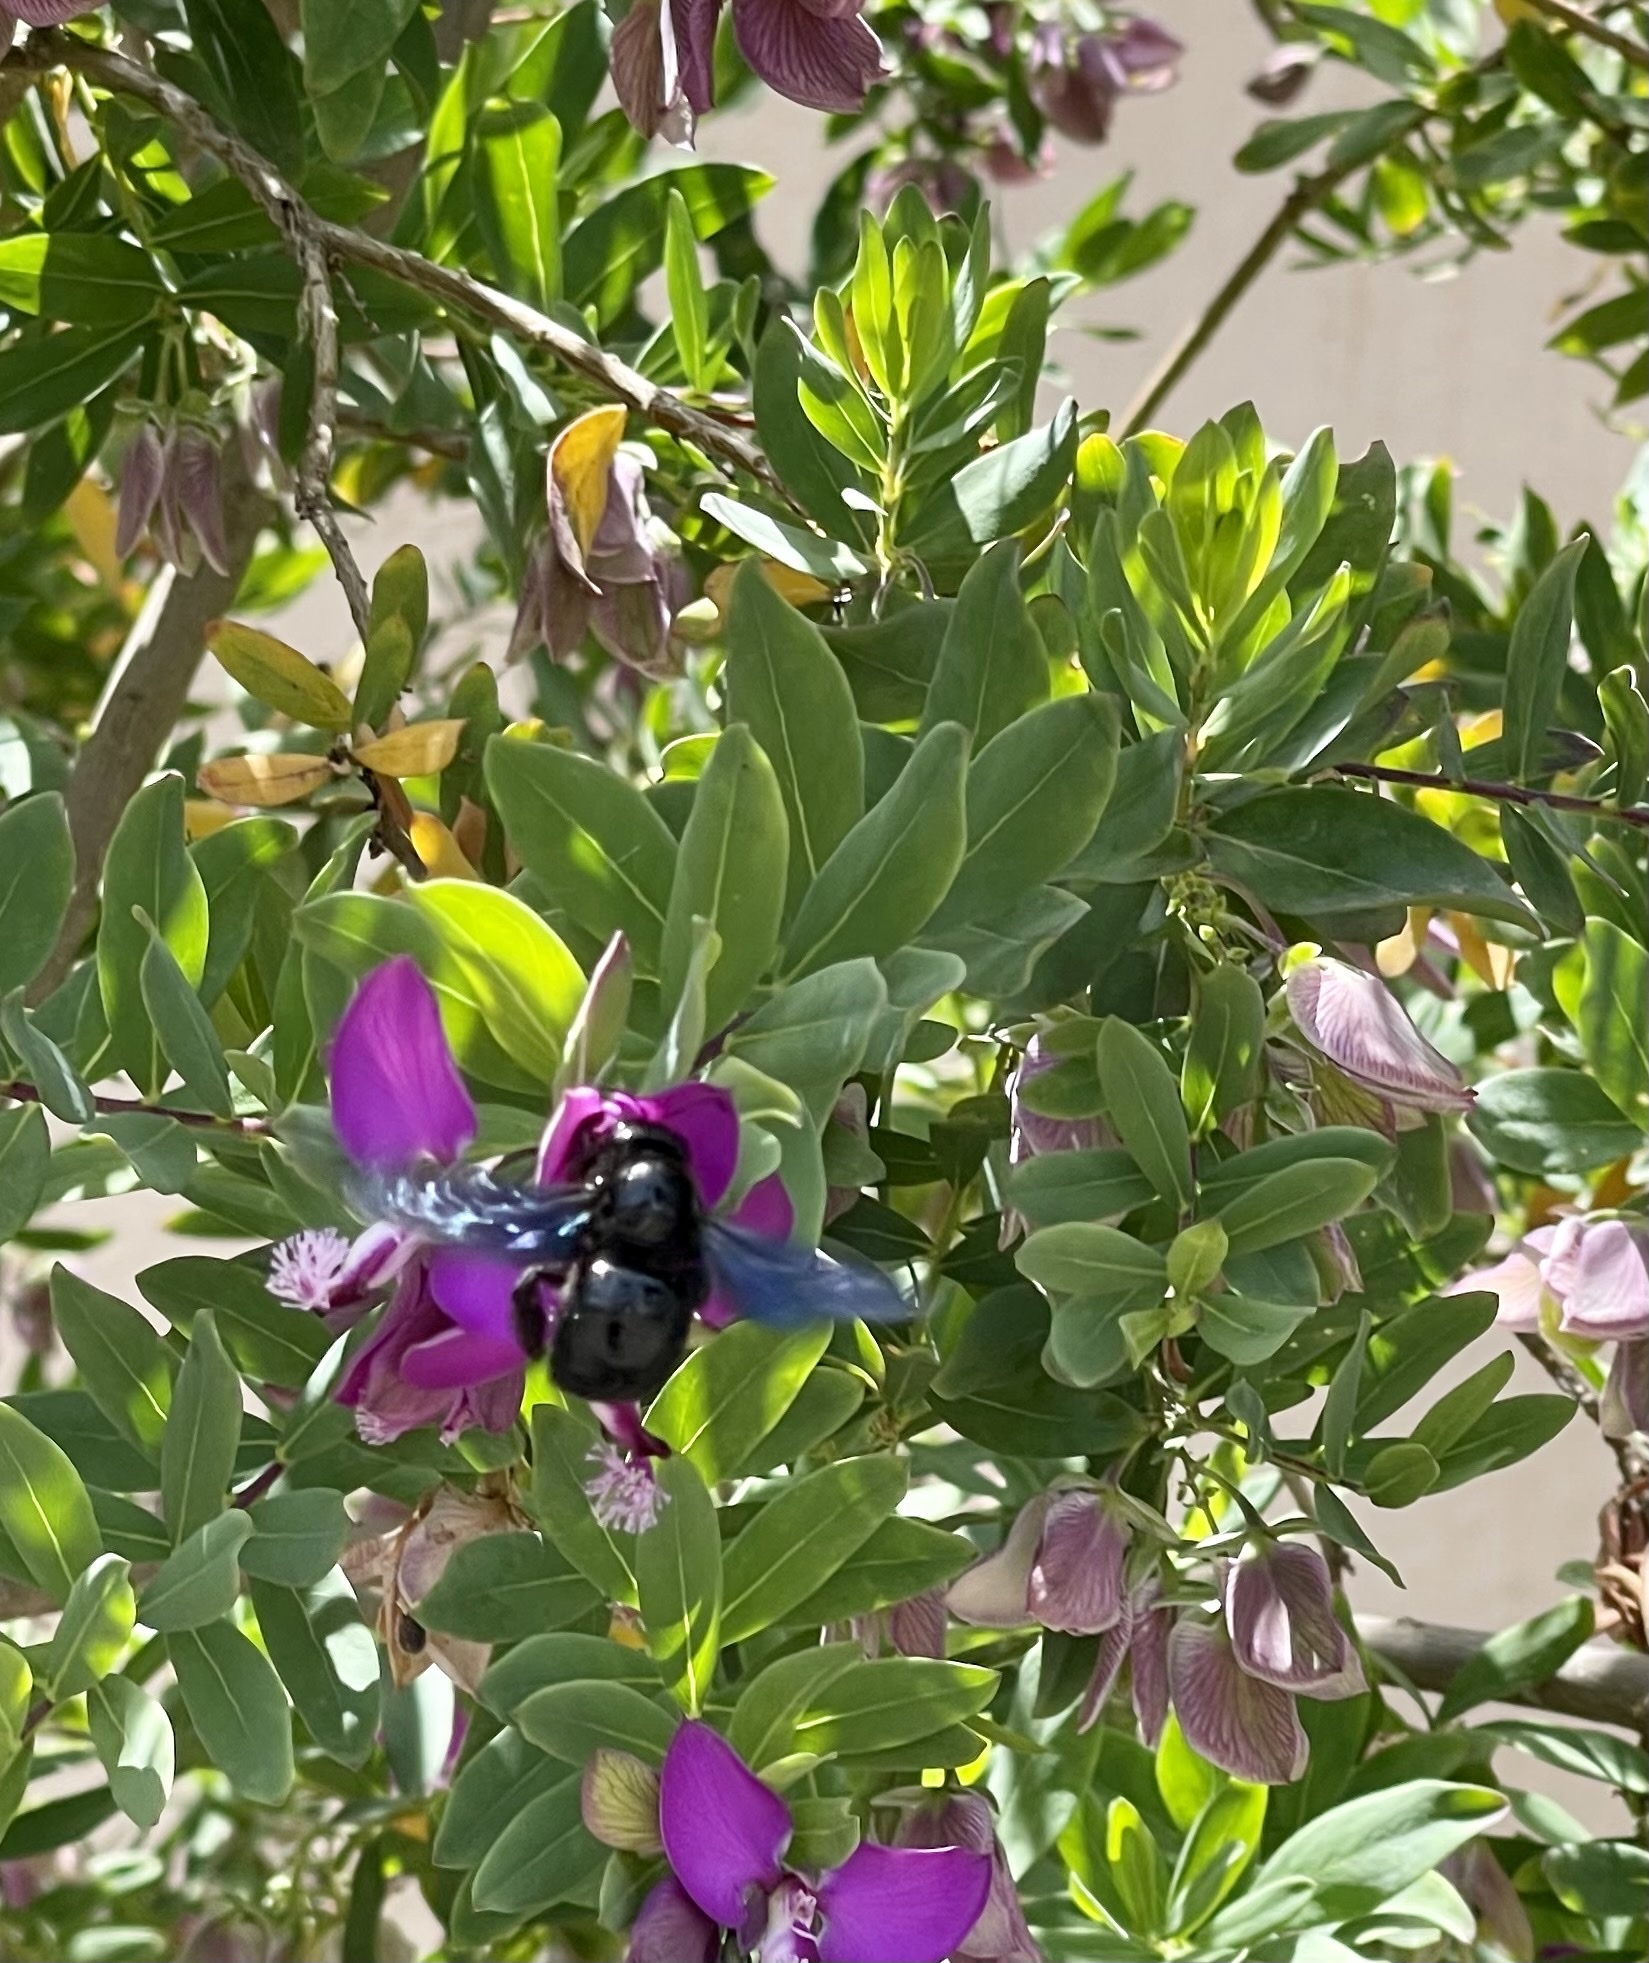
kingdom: Animalia
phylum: Arthropoda
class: Insecta
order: Hymenoptera
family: Apidae
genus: Xylocopa
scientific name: Xylocopa violacea
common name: Violet carpenter bee
